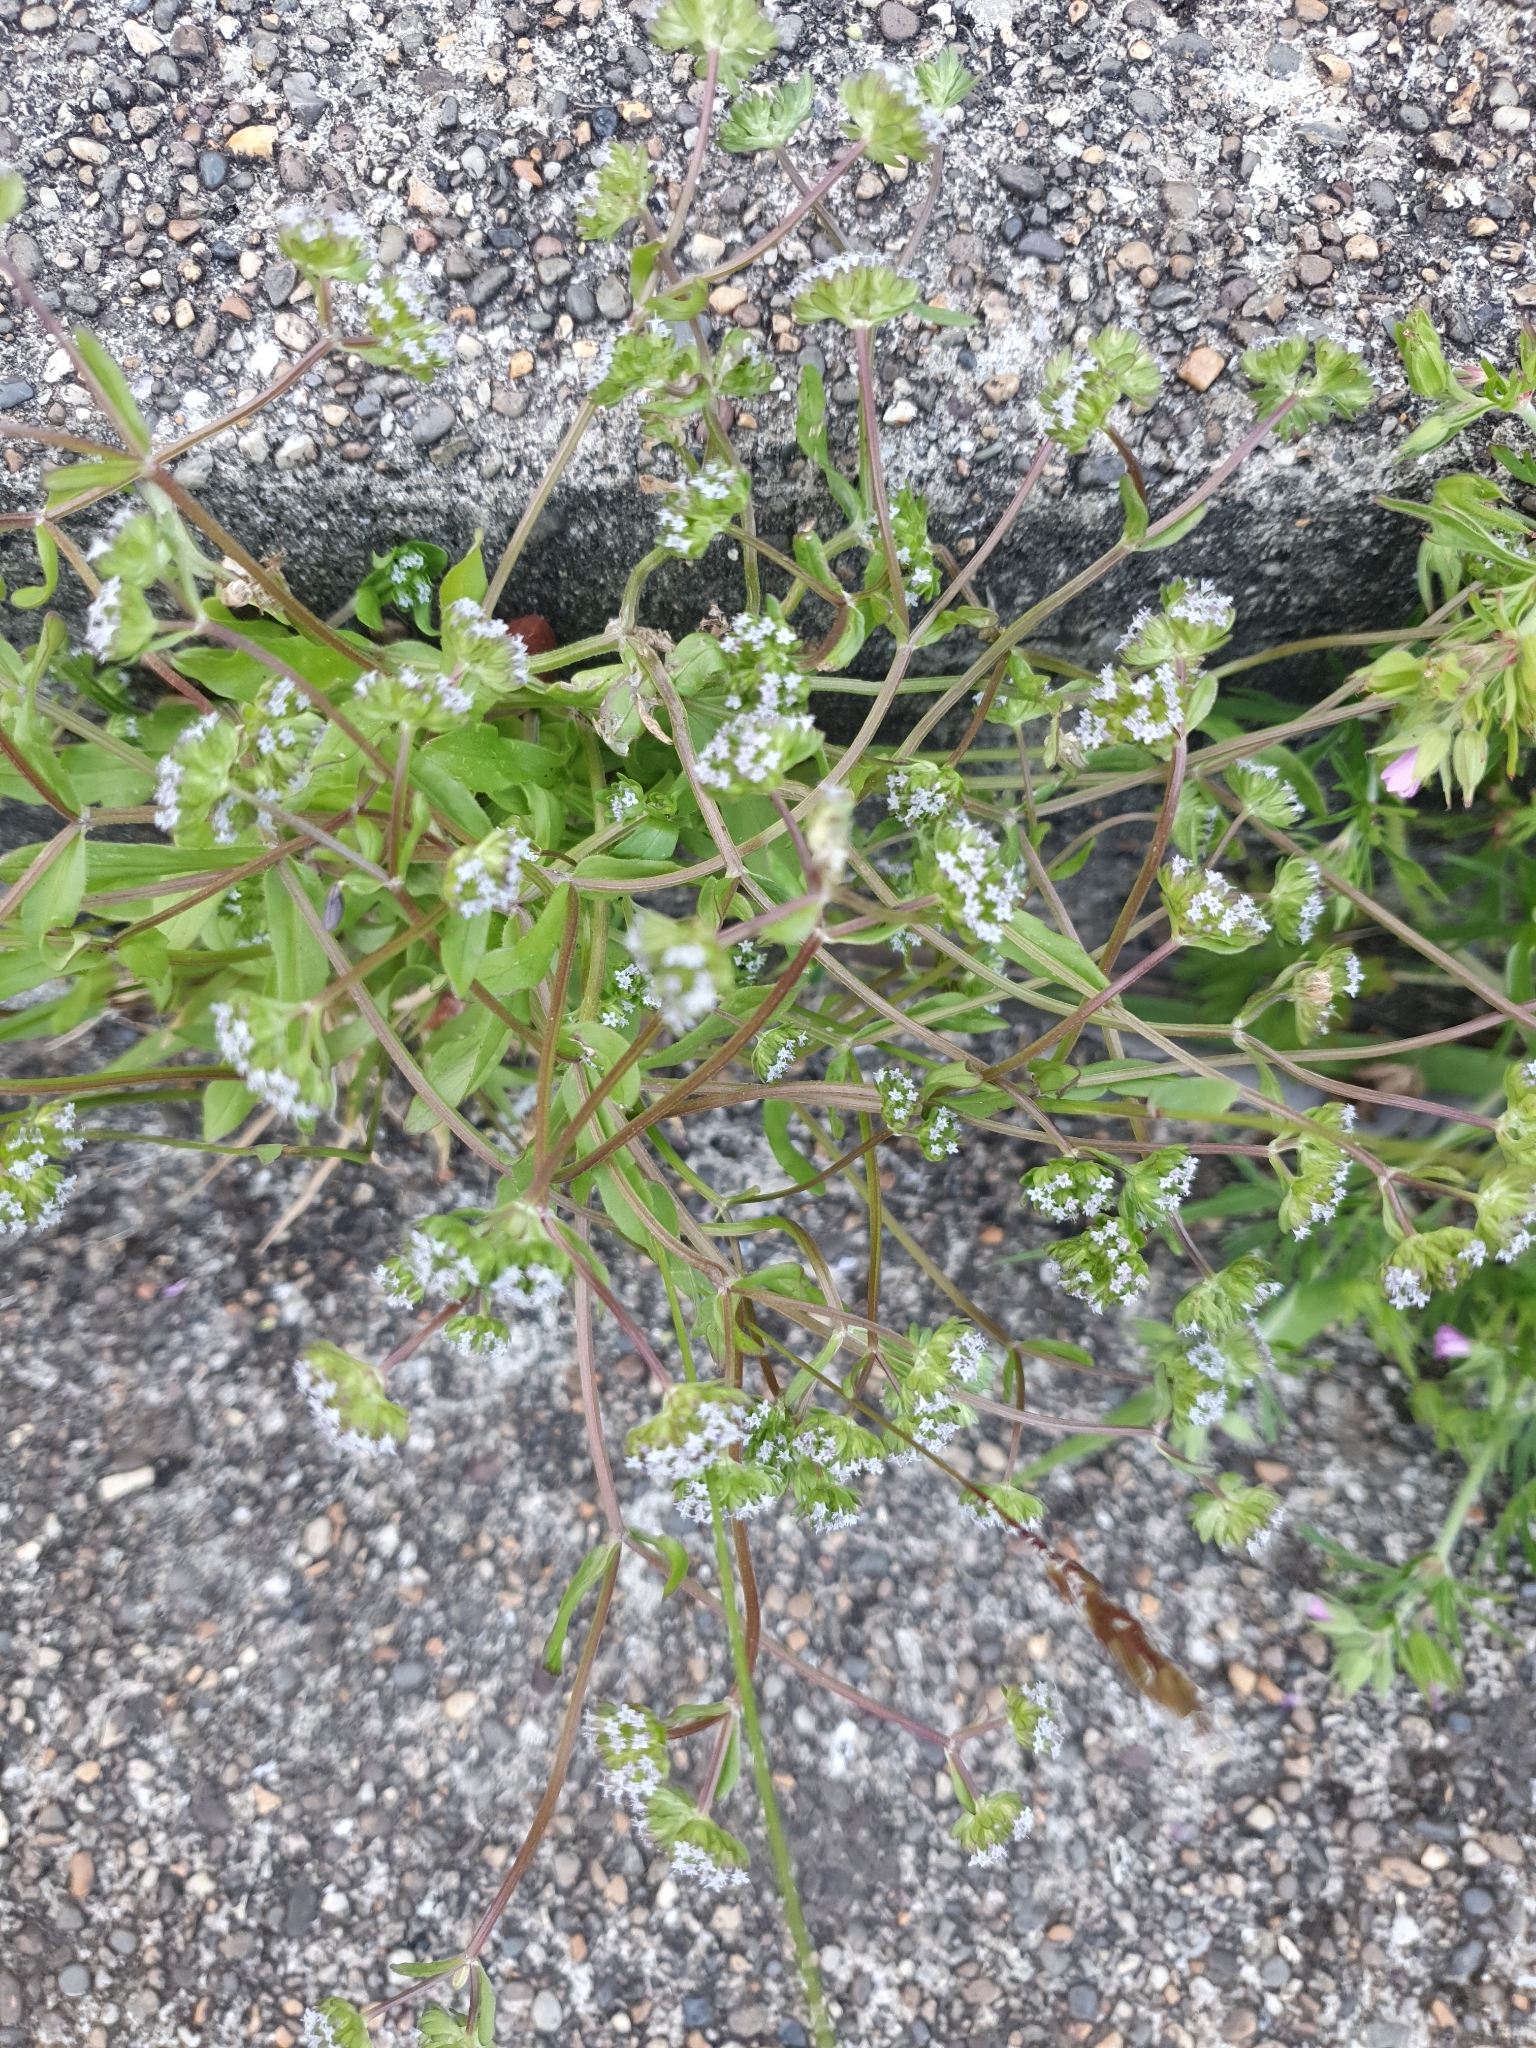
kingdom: Plantae
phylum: Tracheophyta
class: Magnoliopsida
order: Dipsacales
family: Caprifoliaceae
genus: Valerianella
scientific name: Valerianella locusta
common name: Common cornsalad
